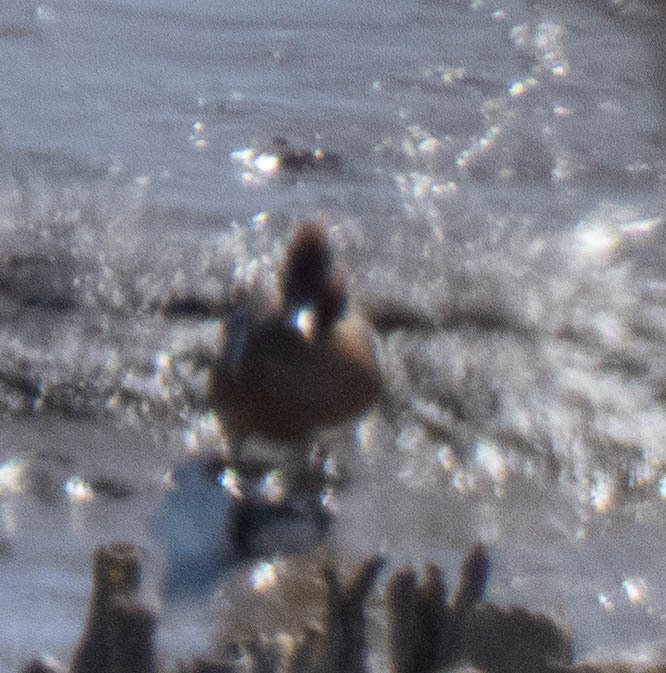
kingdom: Animalia
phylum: Chordata
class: Aves
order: Anseriformes
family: Anatidae
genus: Anas
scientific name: Anas crecca
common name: Eurasian teal
